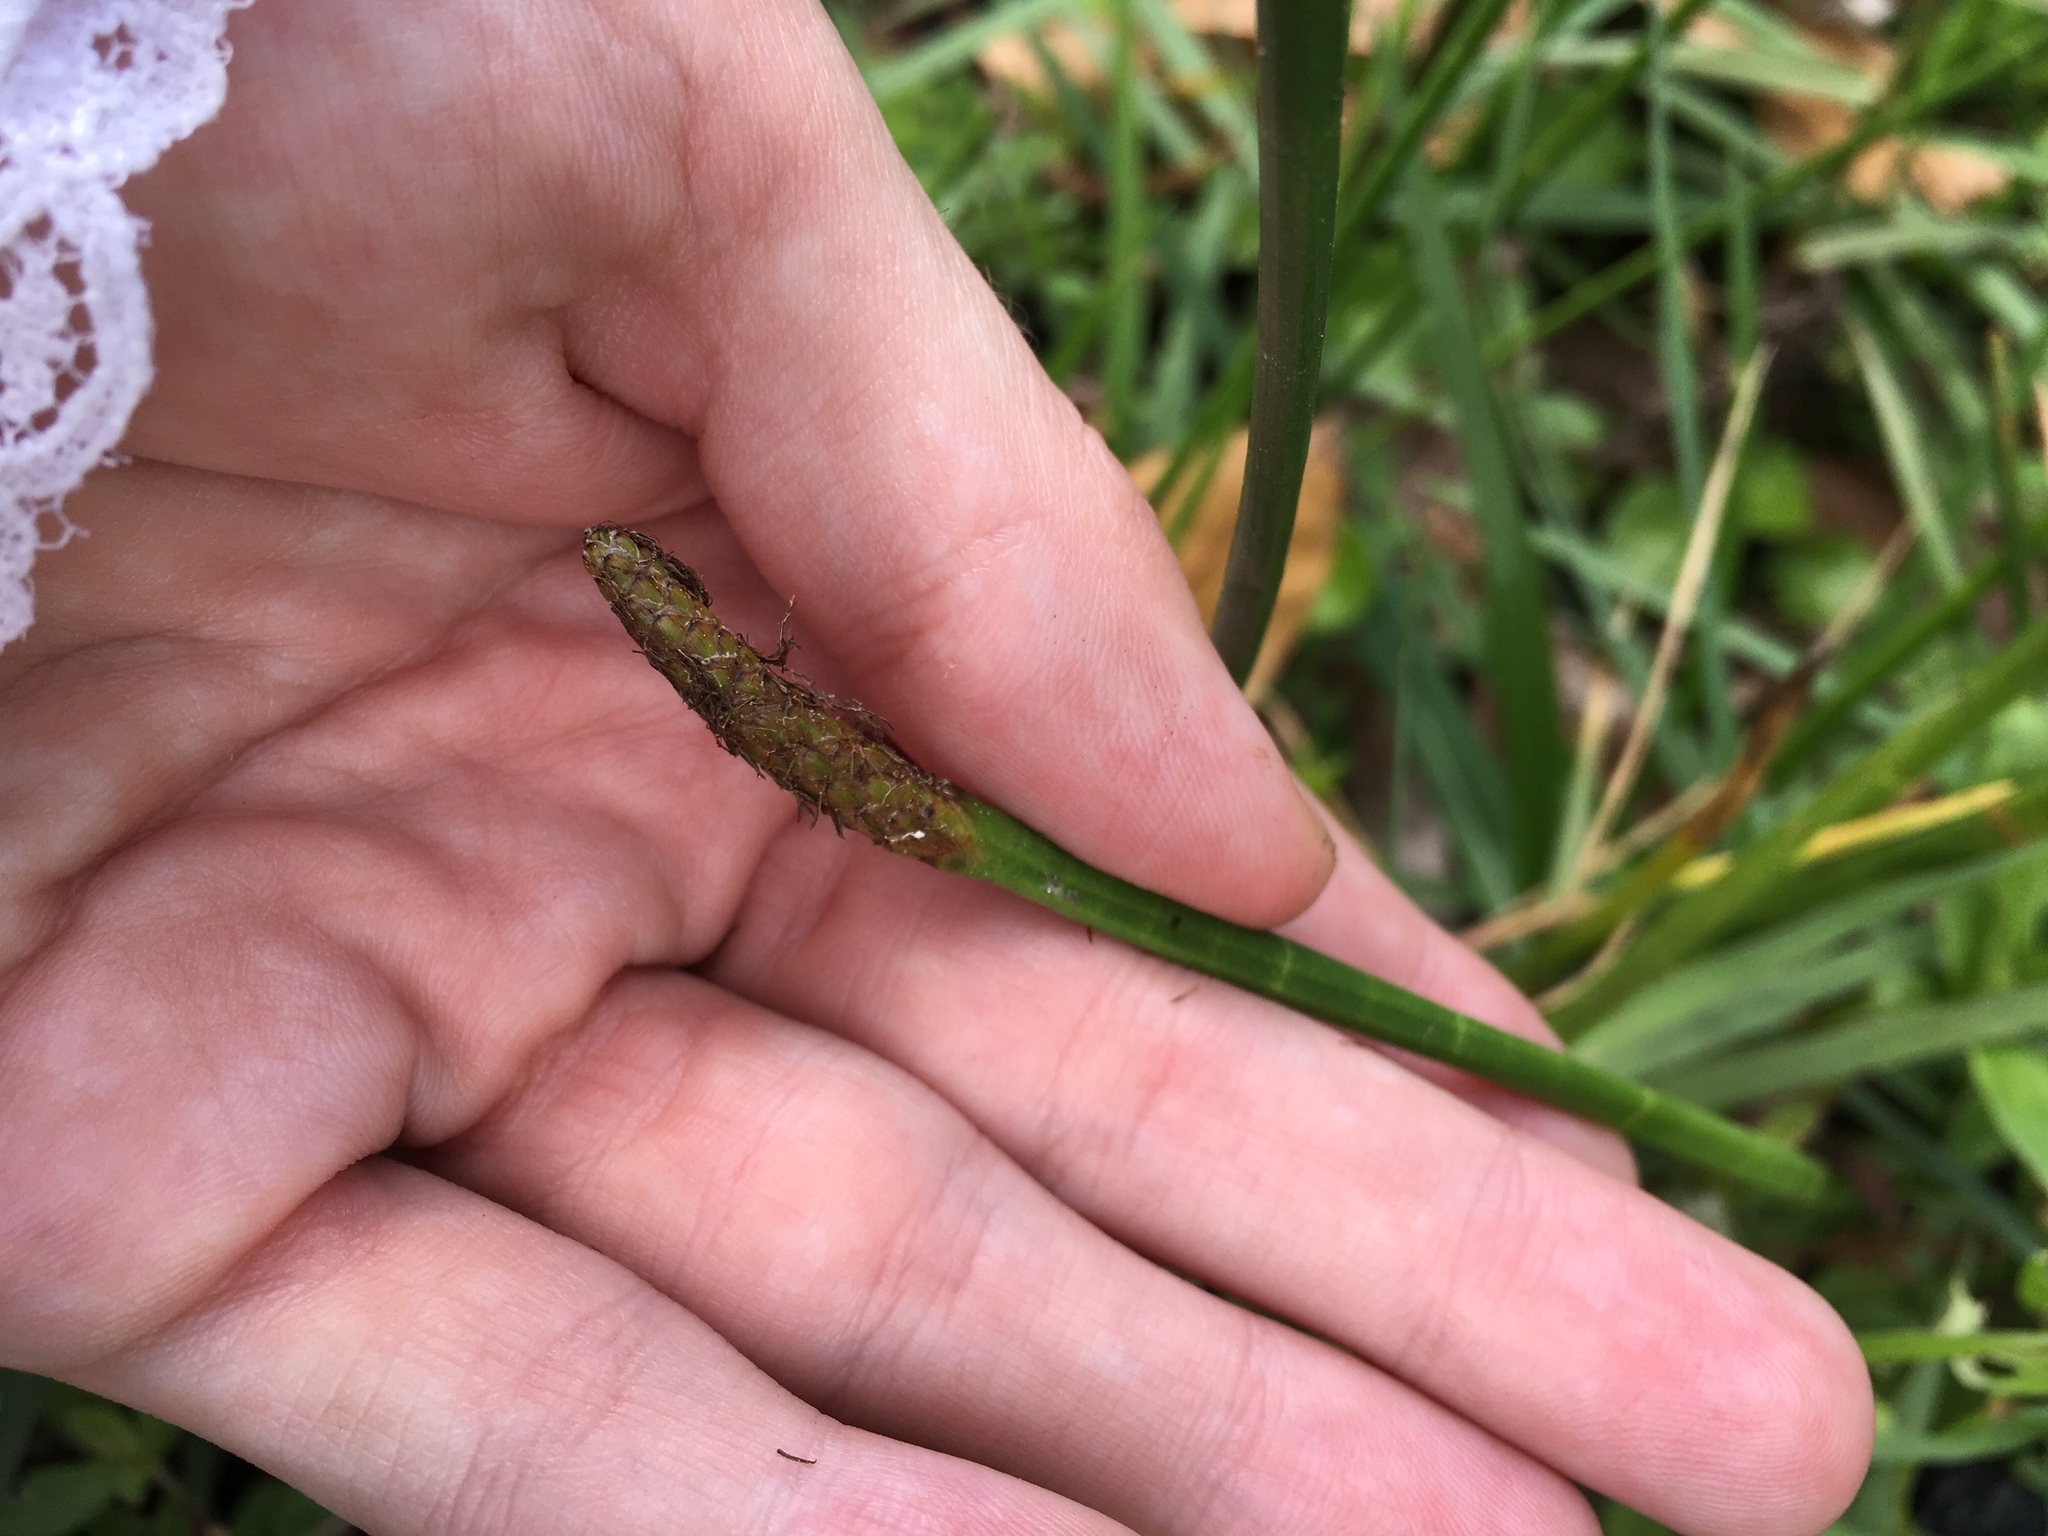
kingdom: Plantae
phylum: Tracheophyta
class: Liliopsida
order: Poales
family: Cyperaceae
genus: Eleocharis
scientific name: Eleocharis interstincta
